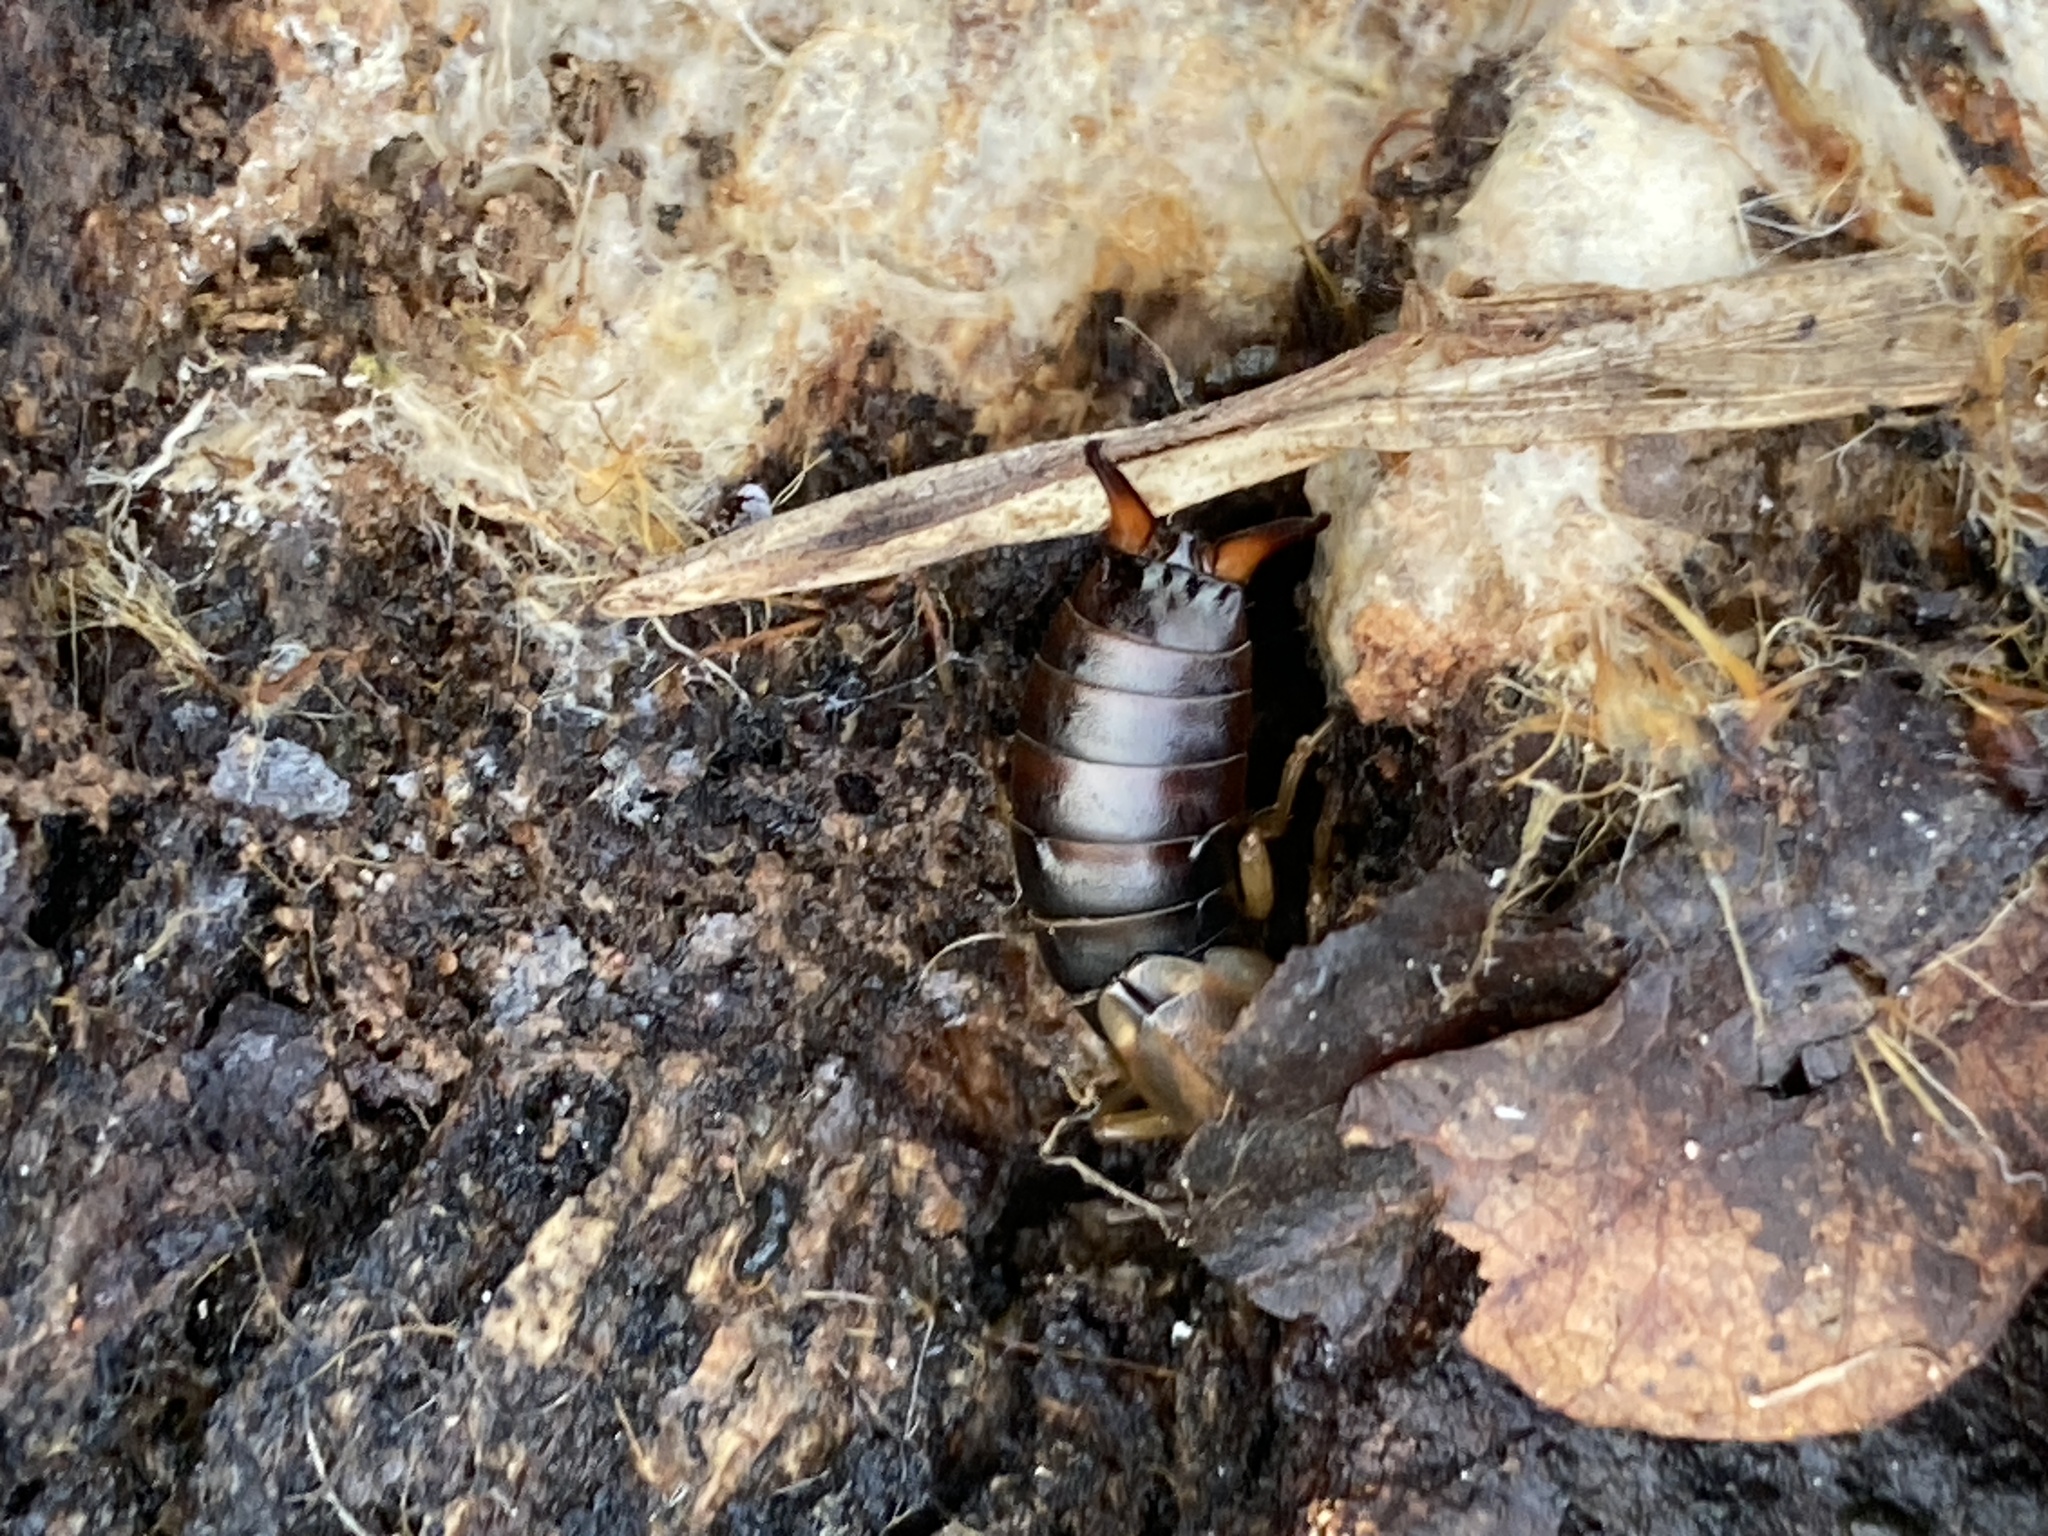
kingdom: Animalia
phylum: Arthropoda
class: Insecta
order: Dermaptera
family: Forficulidae
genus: Forficula
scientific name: Forficula
